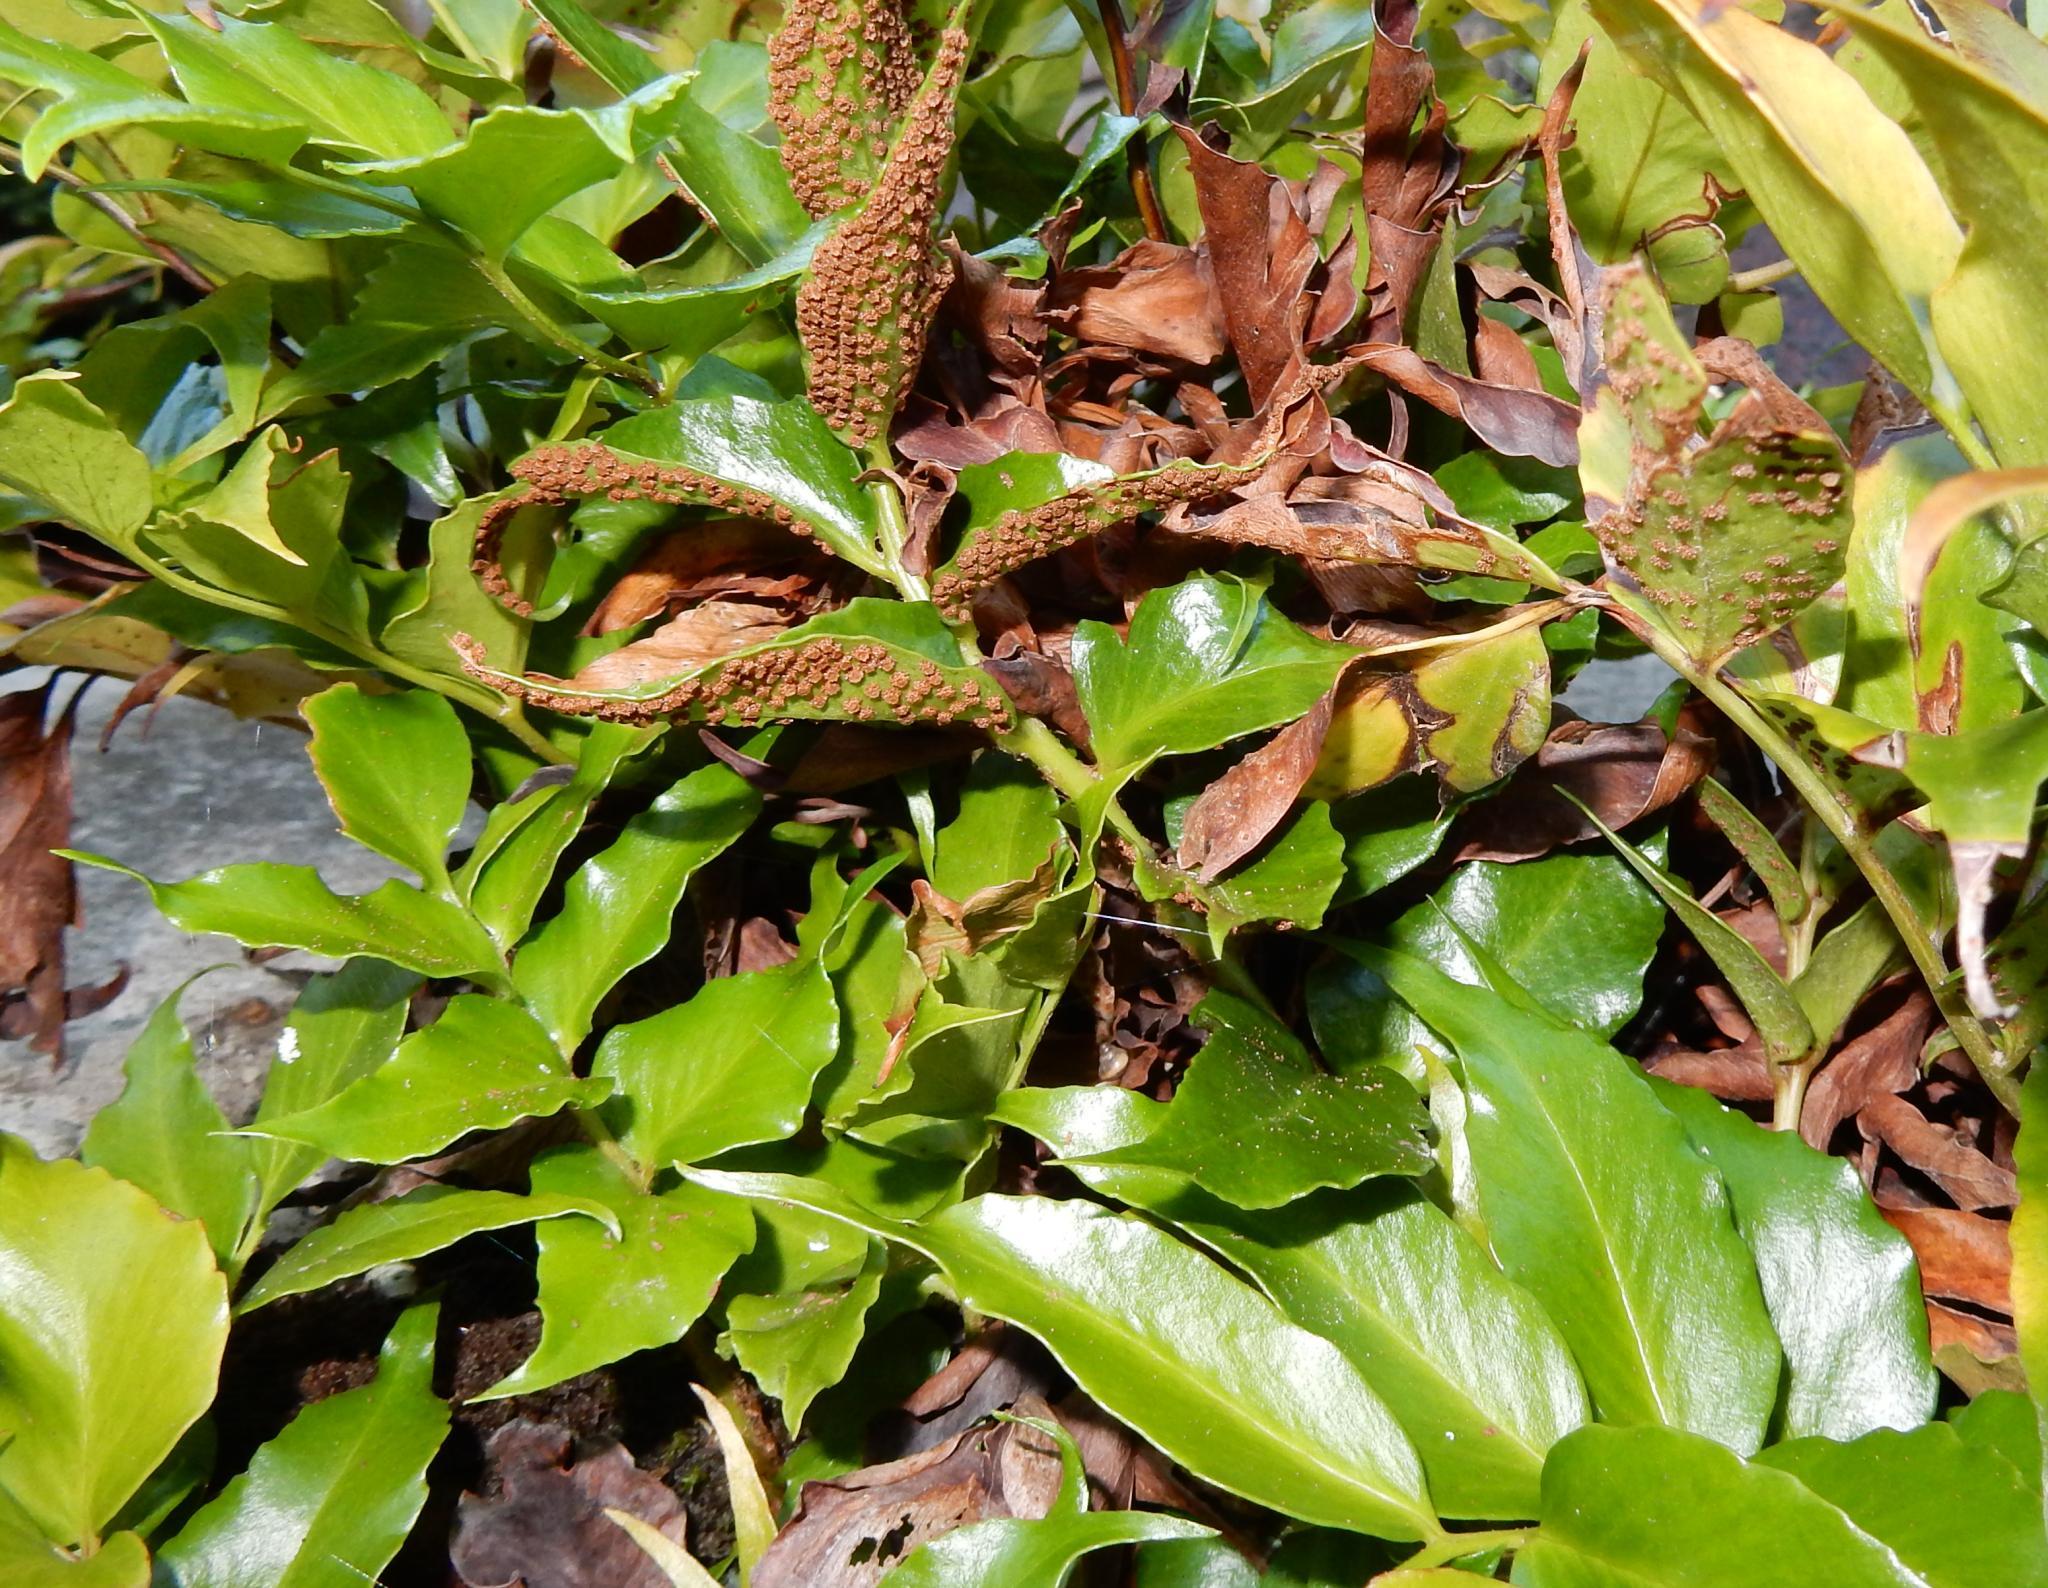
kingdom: Plantae
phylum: Tracheophyta
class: Polypodiopsida
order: Polypodiales
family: Dryopteridaceae
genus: Cyrtomium
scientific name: Cyrtomium falcatum
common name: House holly-fern
